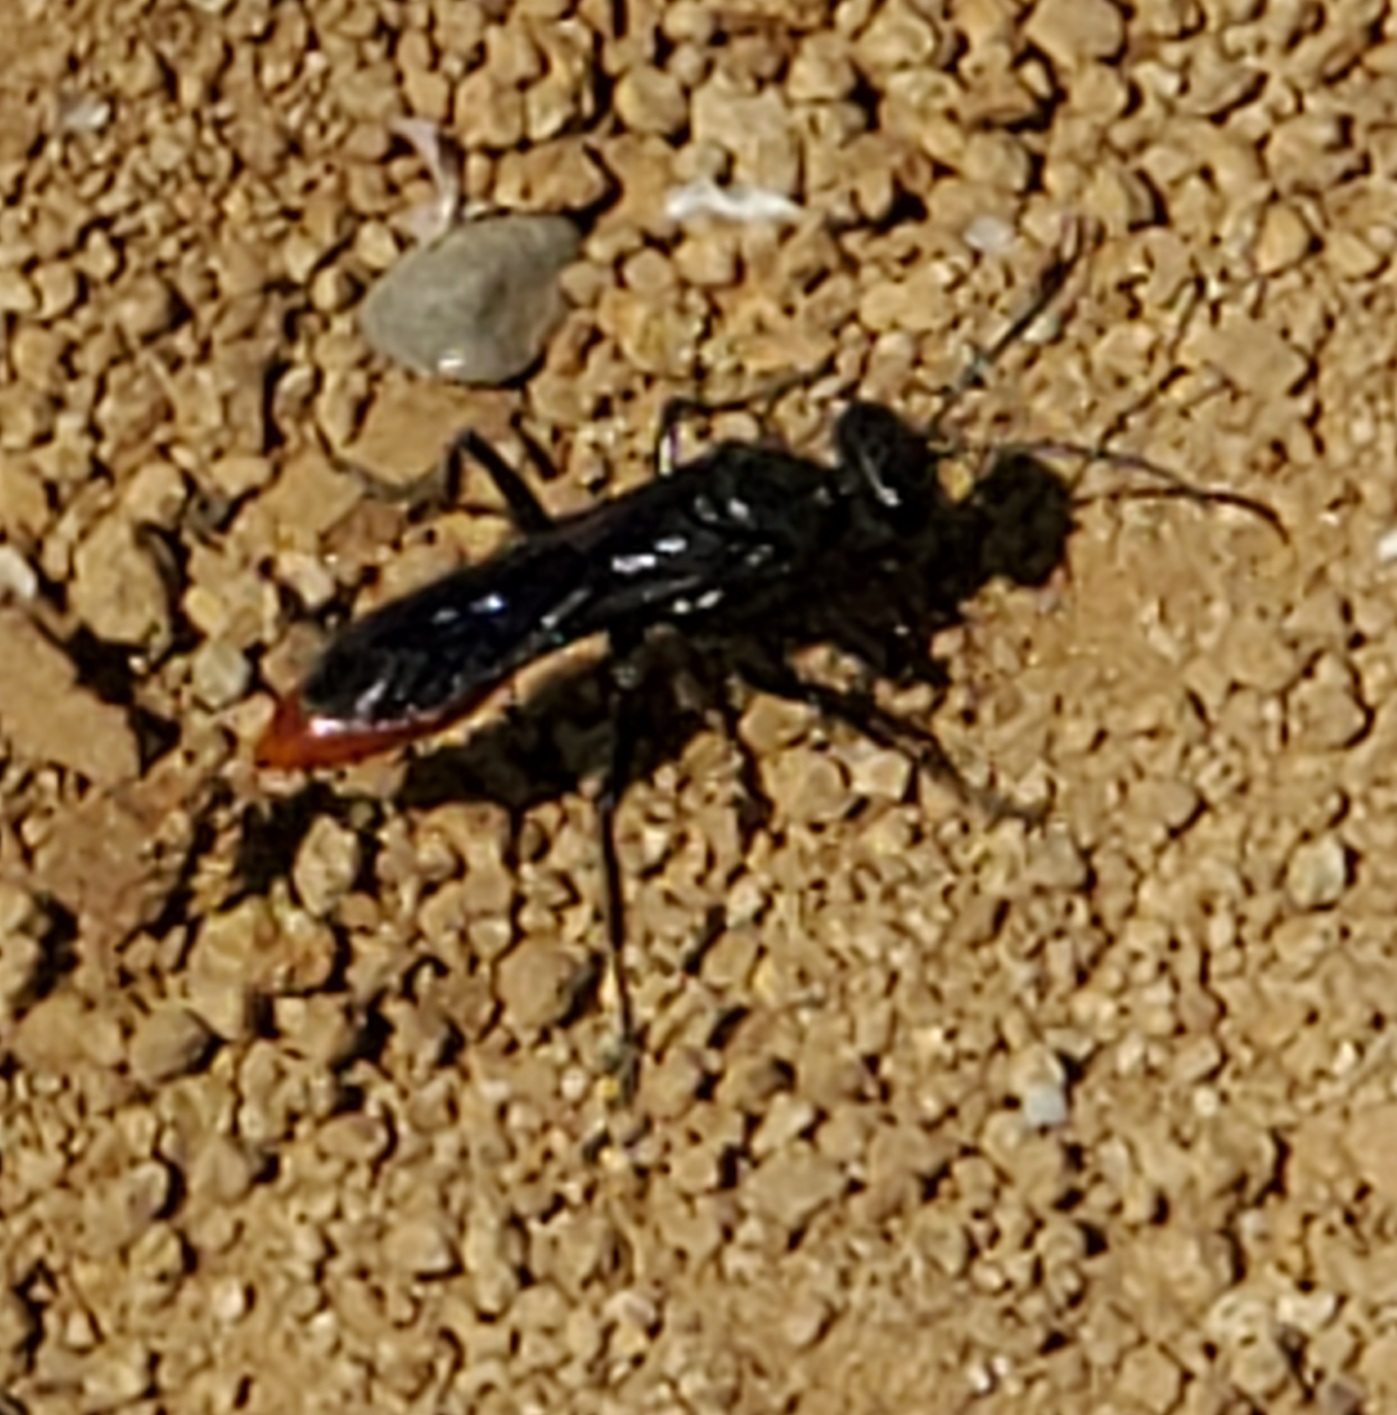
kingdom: Animalia
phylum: Arthropoda
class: Insecta
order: Hymenoptera
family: Sphecidae
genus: Sphex
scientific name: Sphex lucae
